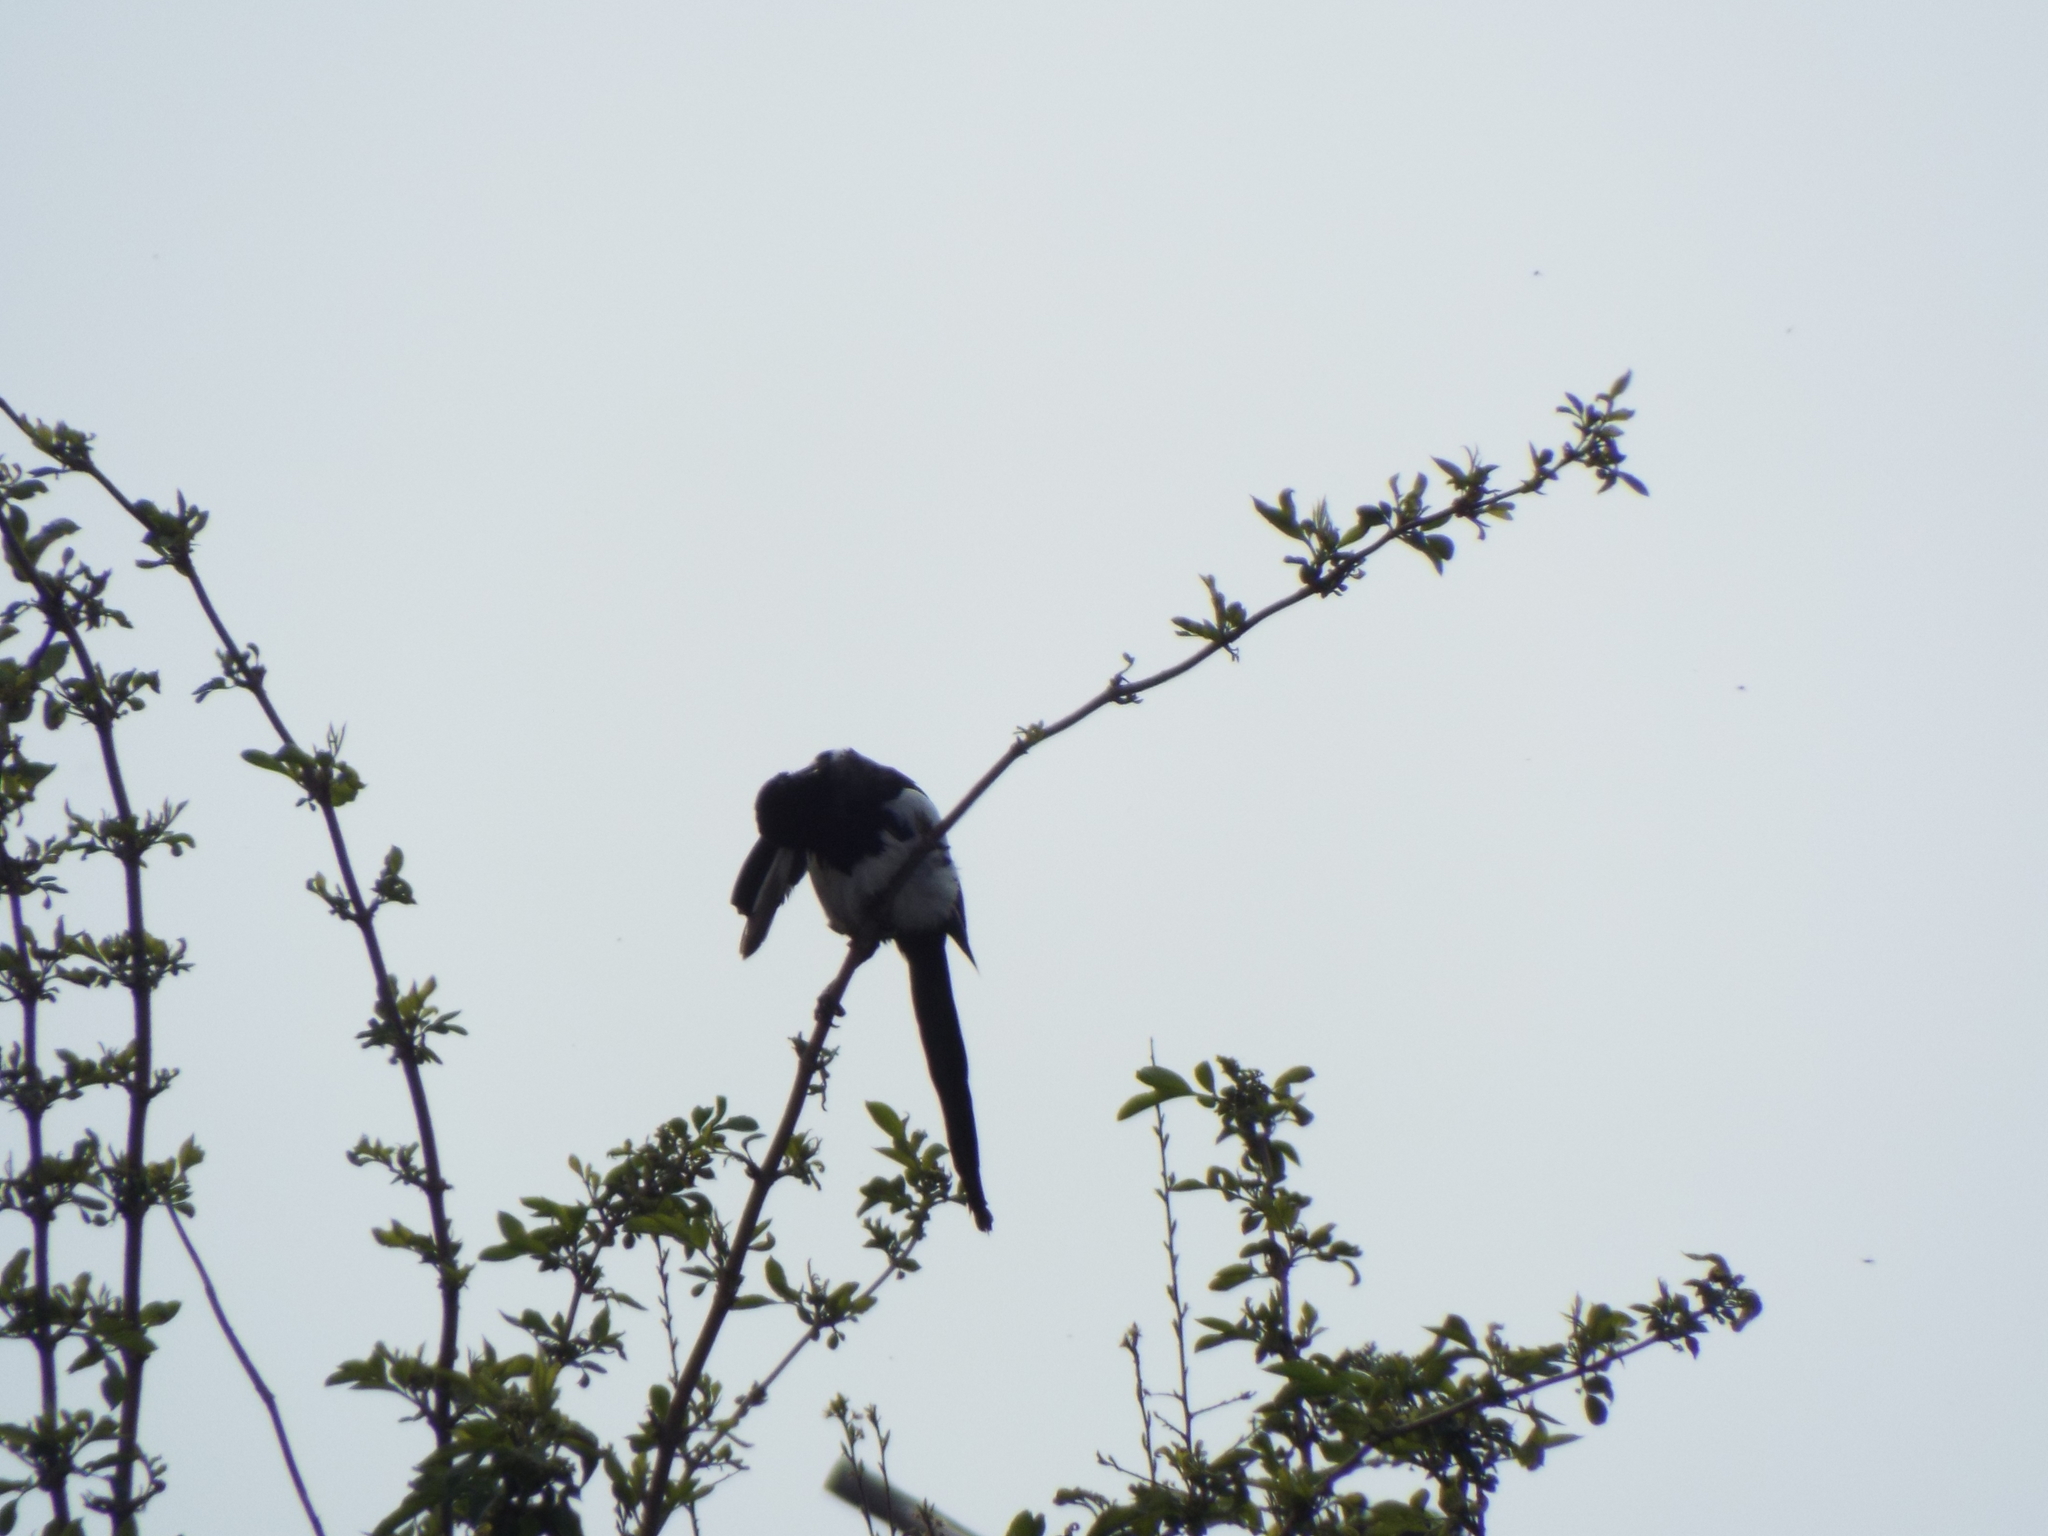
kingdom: Animalia
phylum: Chordata
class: Aves
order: Passeriformes
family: Corvidae
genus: Pica
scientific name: Pica pica
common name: Eurasian magpie
